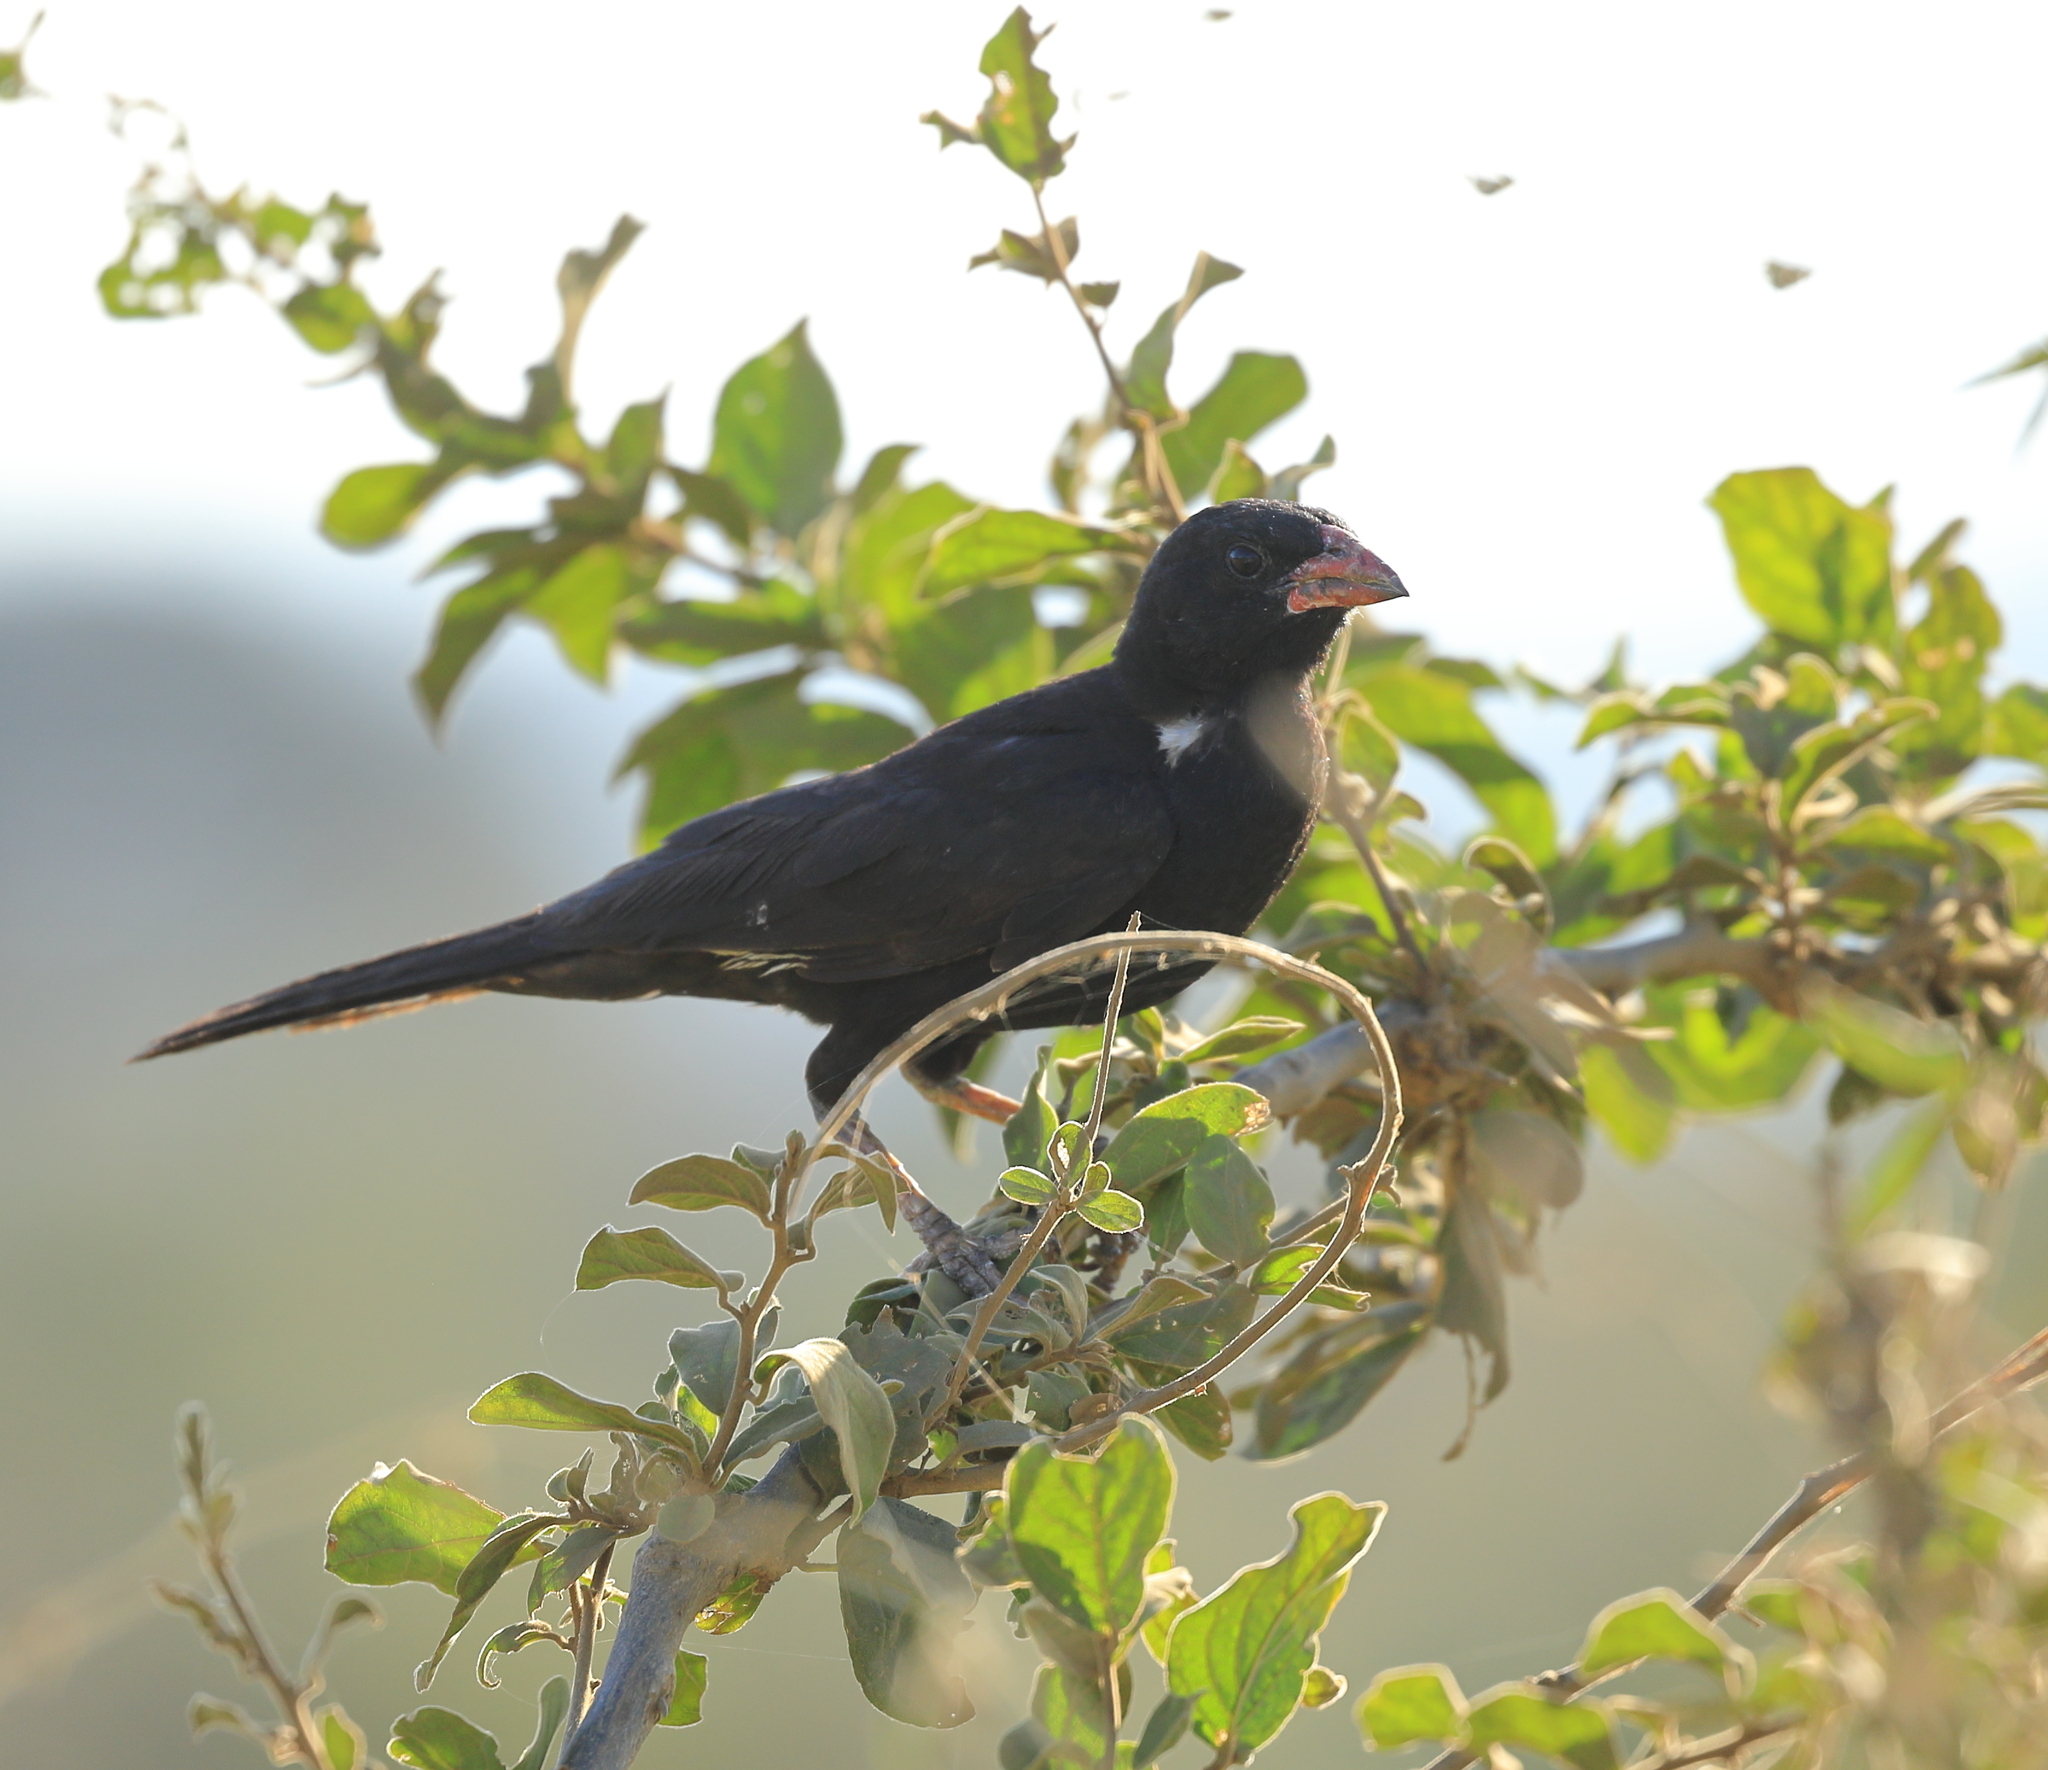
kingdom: Animalia
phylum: Chordata
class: Aves
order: Passeriformes
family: Ploceidae
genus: Bubalornis
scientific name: Bubalornis niger
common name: Red-billed buffalo weaver
